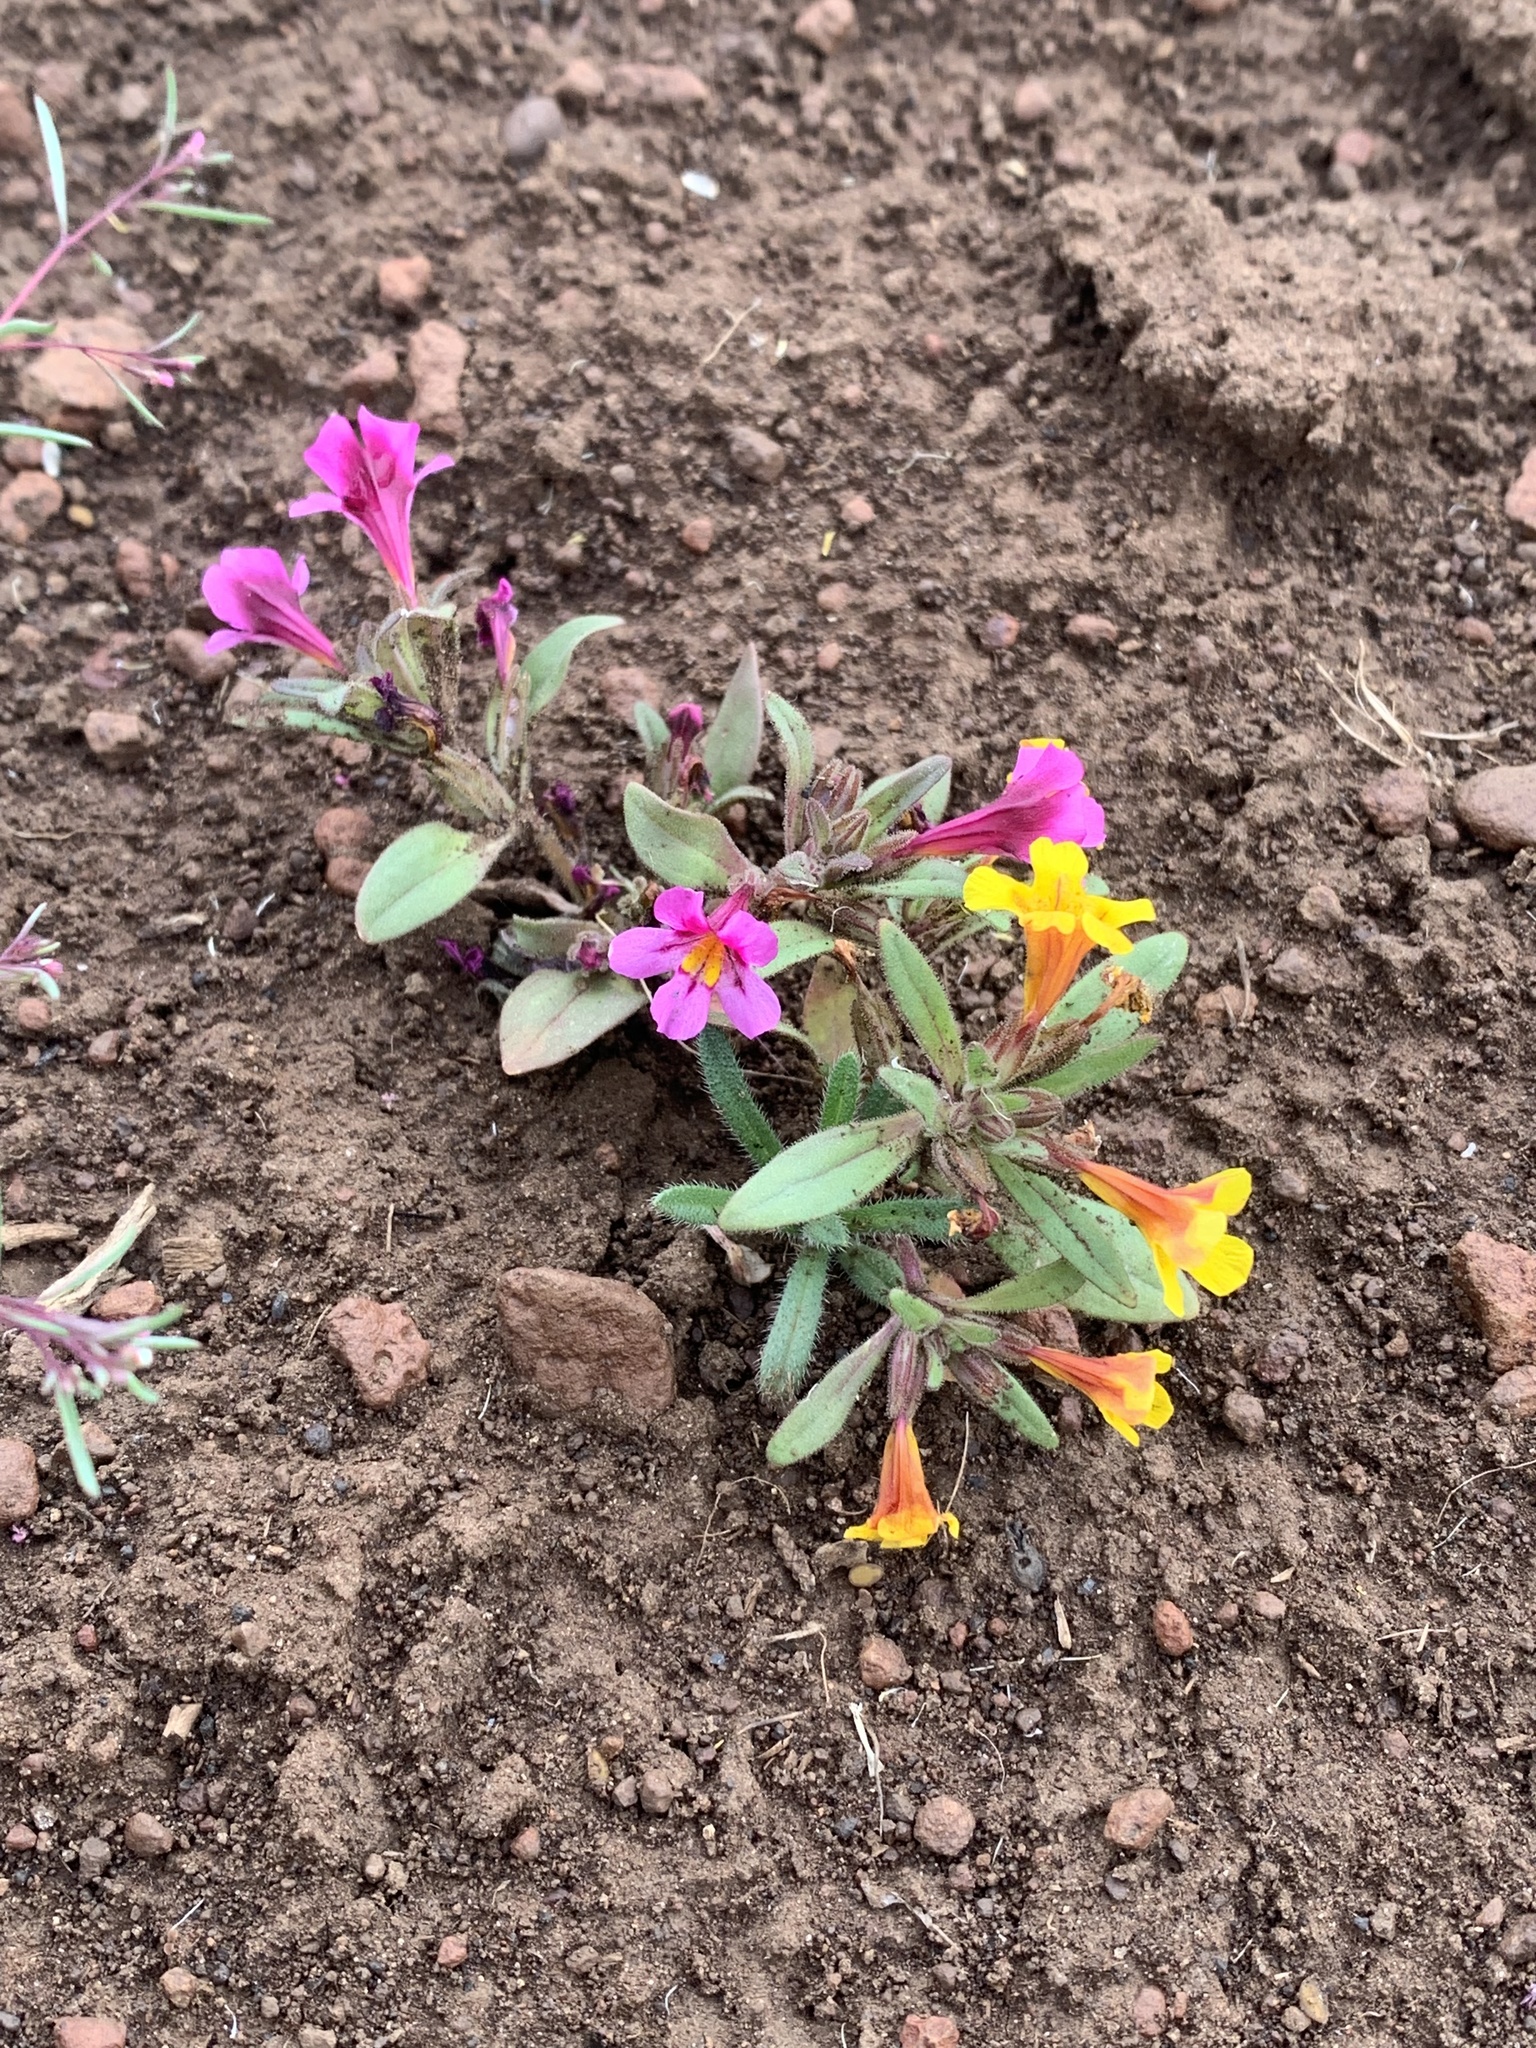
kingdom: Plantae
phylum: Tracheophyta
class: Magnoliopsida
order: Lamiales
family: Phrymaceae
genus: Diplacus
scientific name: Diplacus mephiticus
